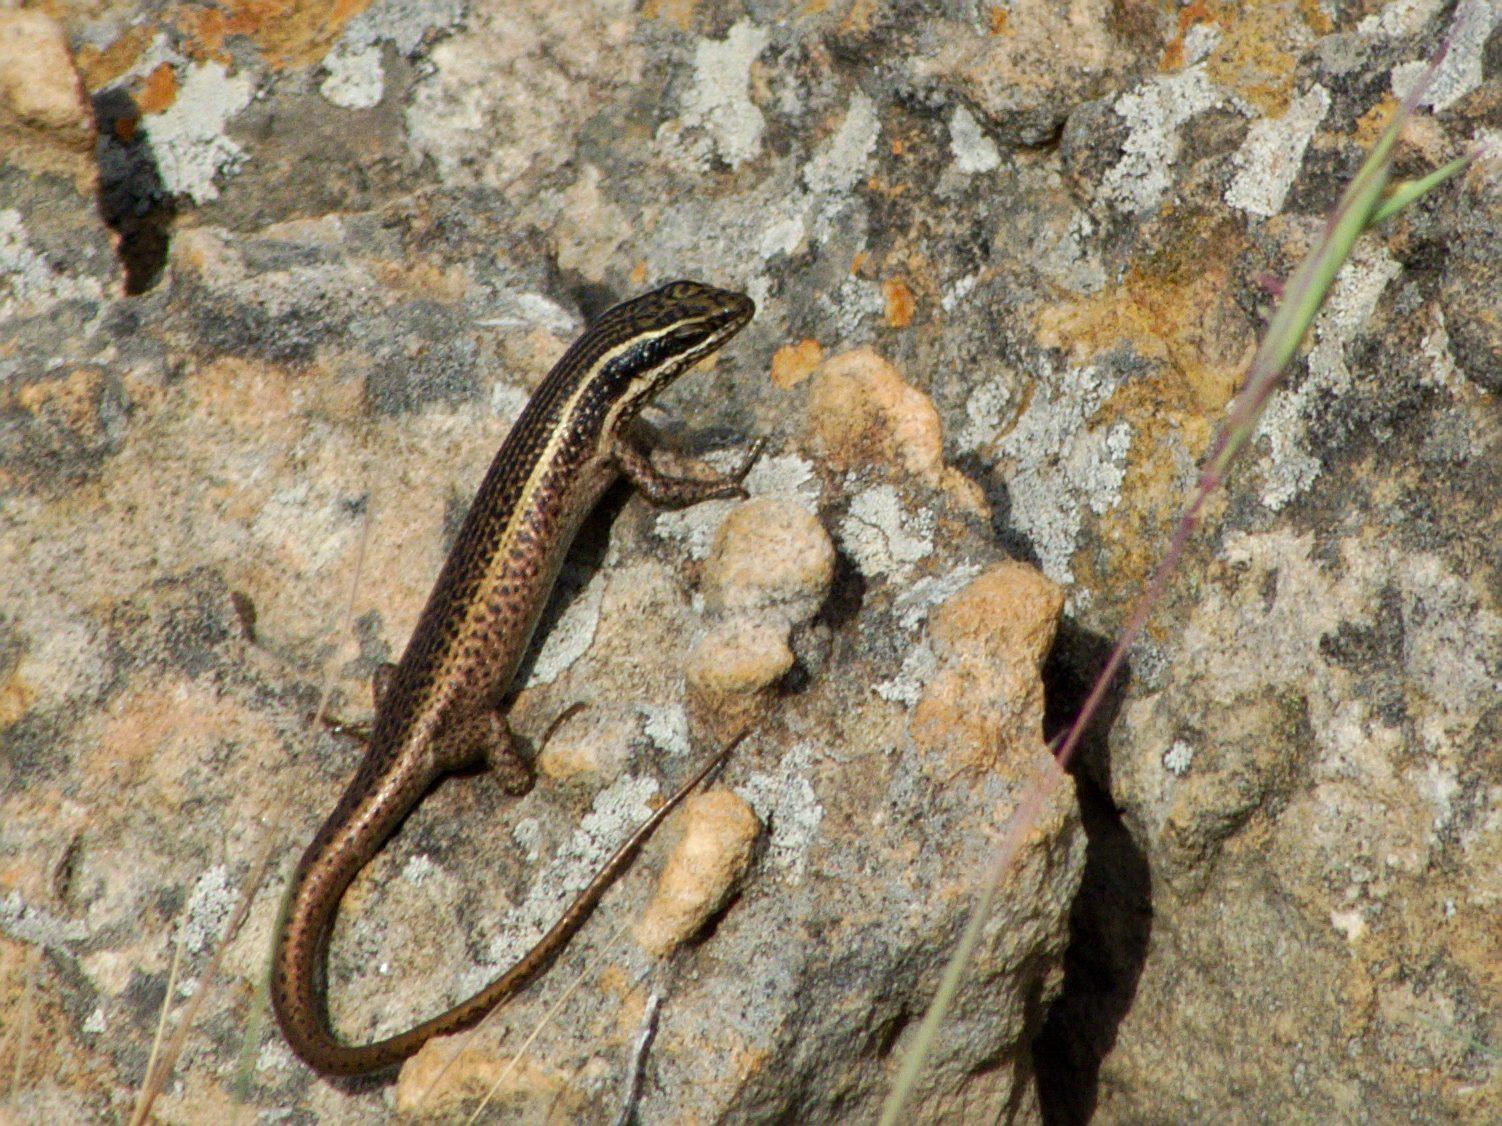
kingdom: Animalia
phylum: Chordata
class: Squamata
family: Scincidae
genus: Trachylepis
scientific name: Trachylepis punctatissima
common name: Montane speckled skink
